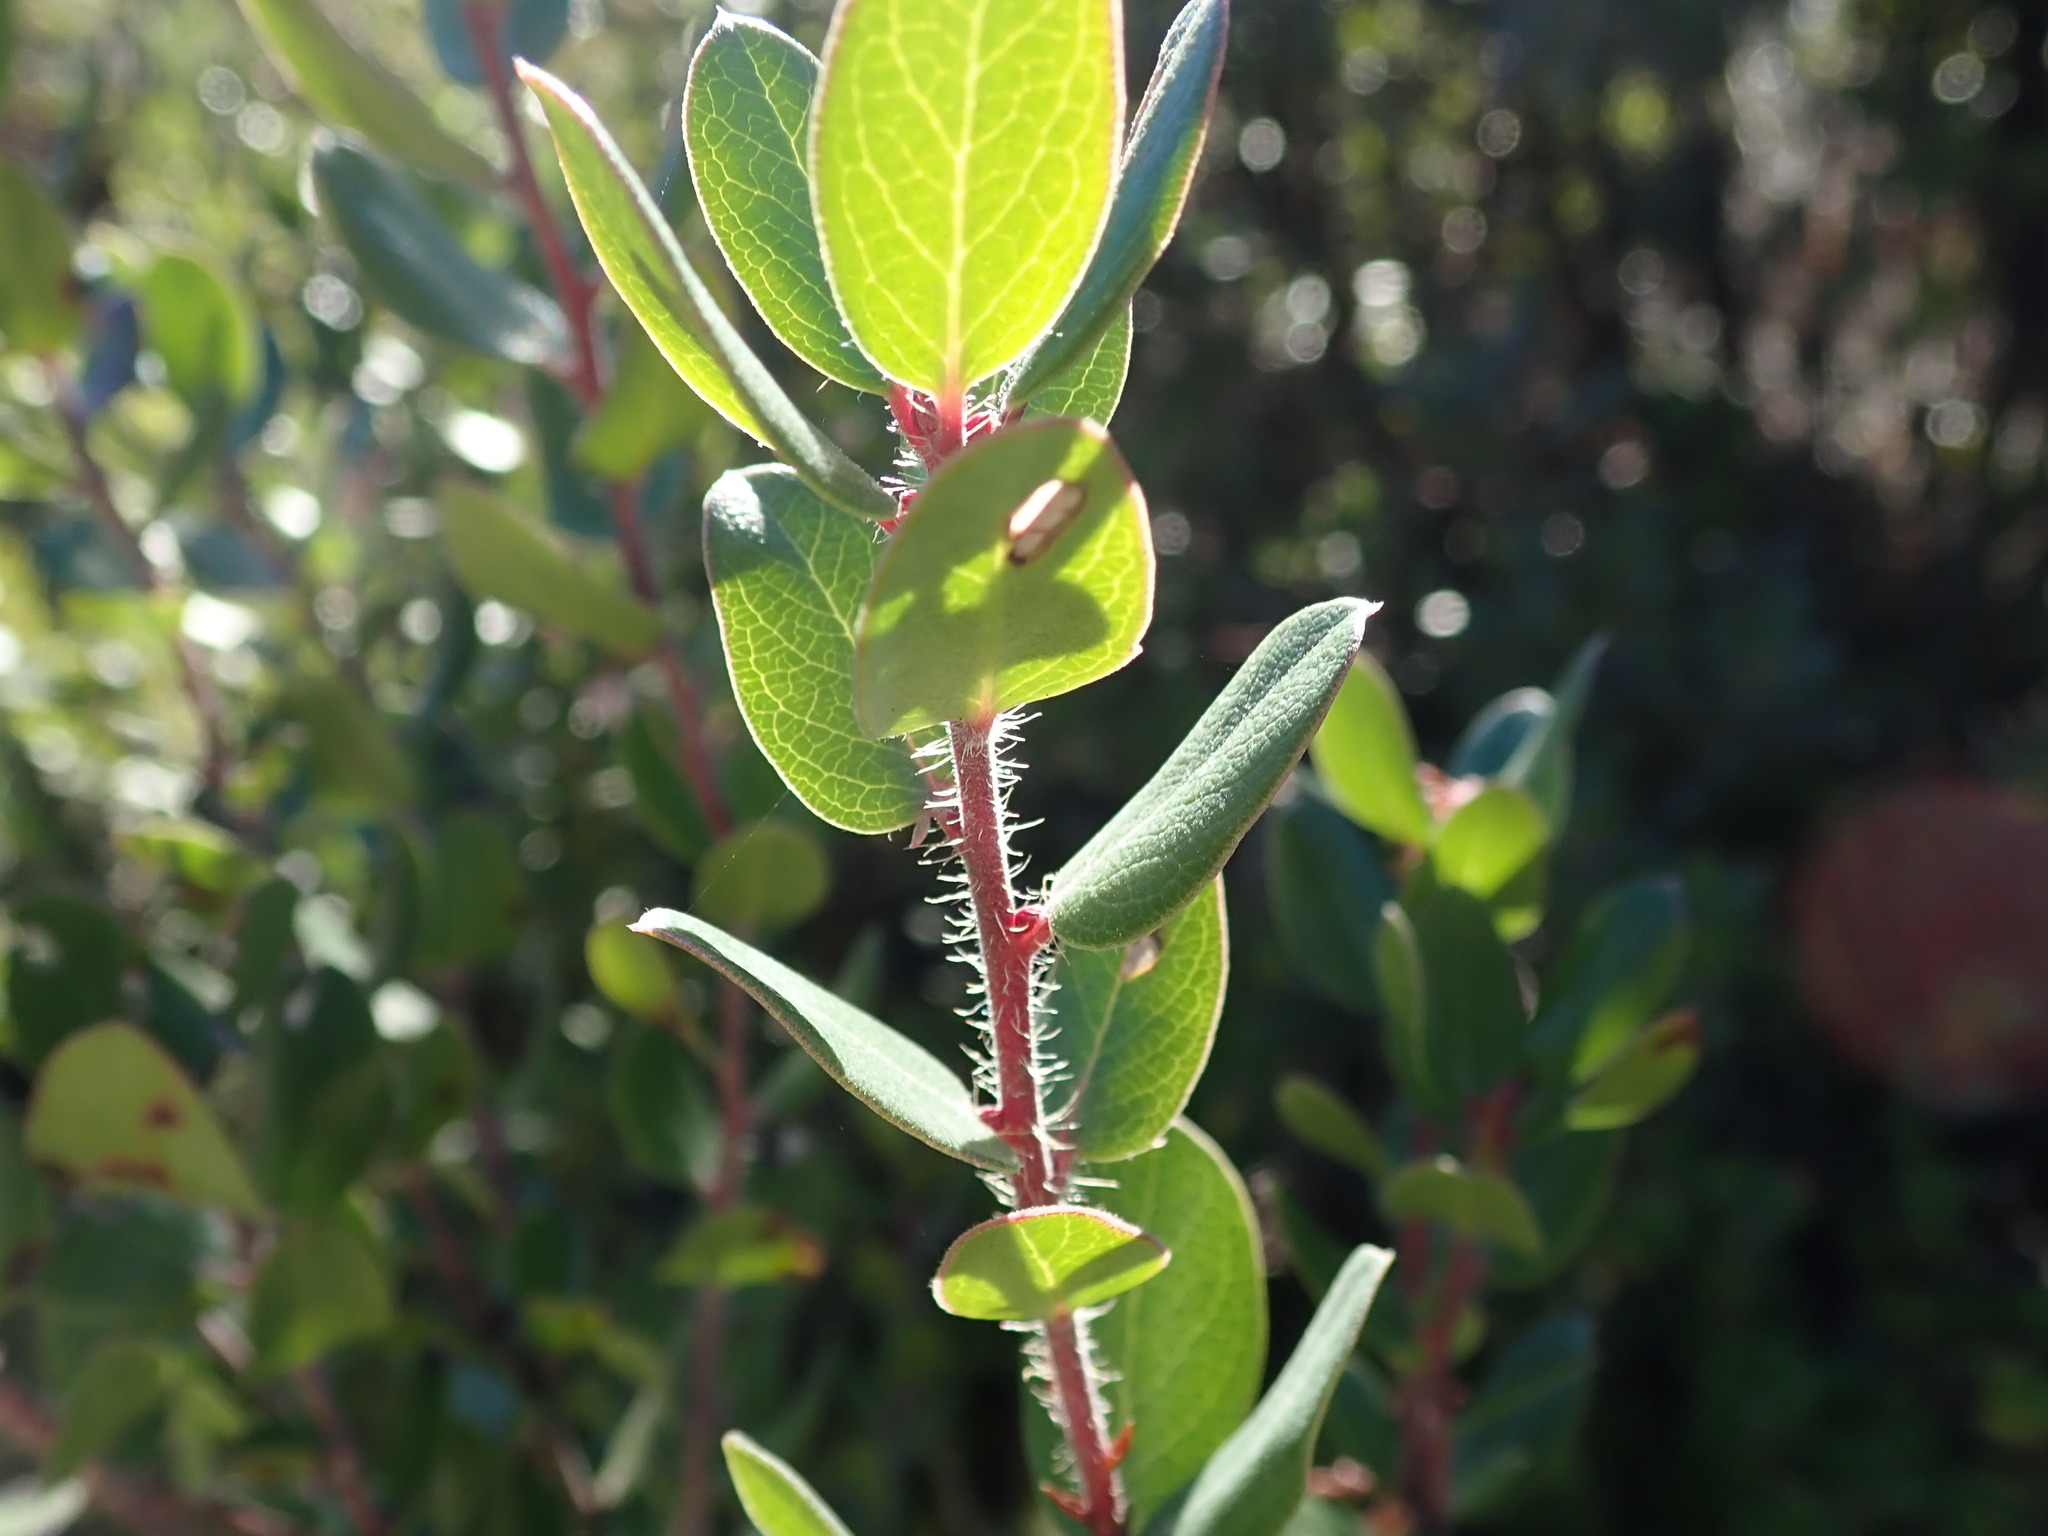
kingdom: Plantae
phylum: Tracheophyta
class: Magnoliopsida
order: Ericales
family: Ericaceae
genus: Arctostaphylos
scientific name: Arctostaphylos nummularia
